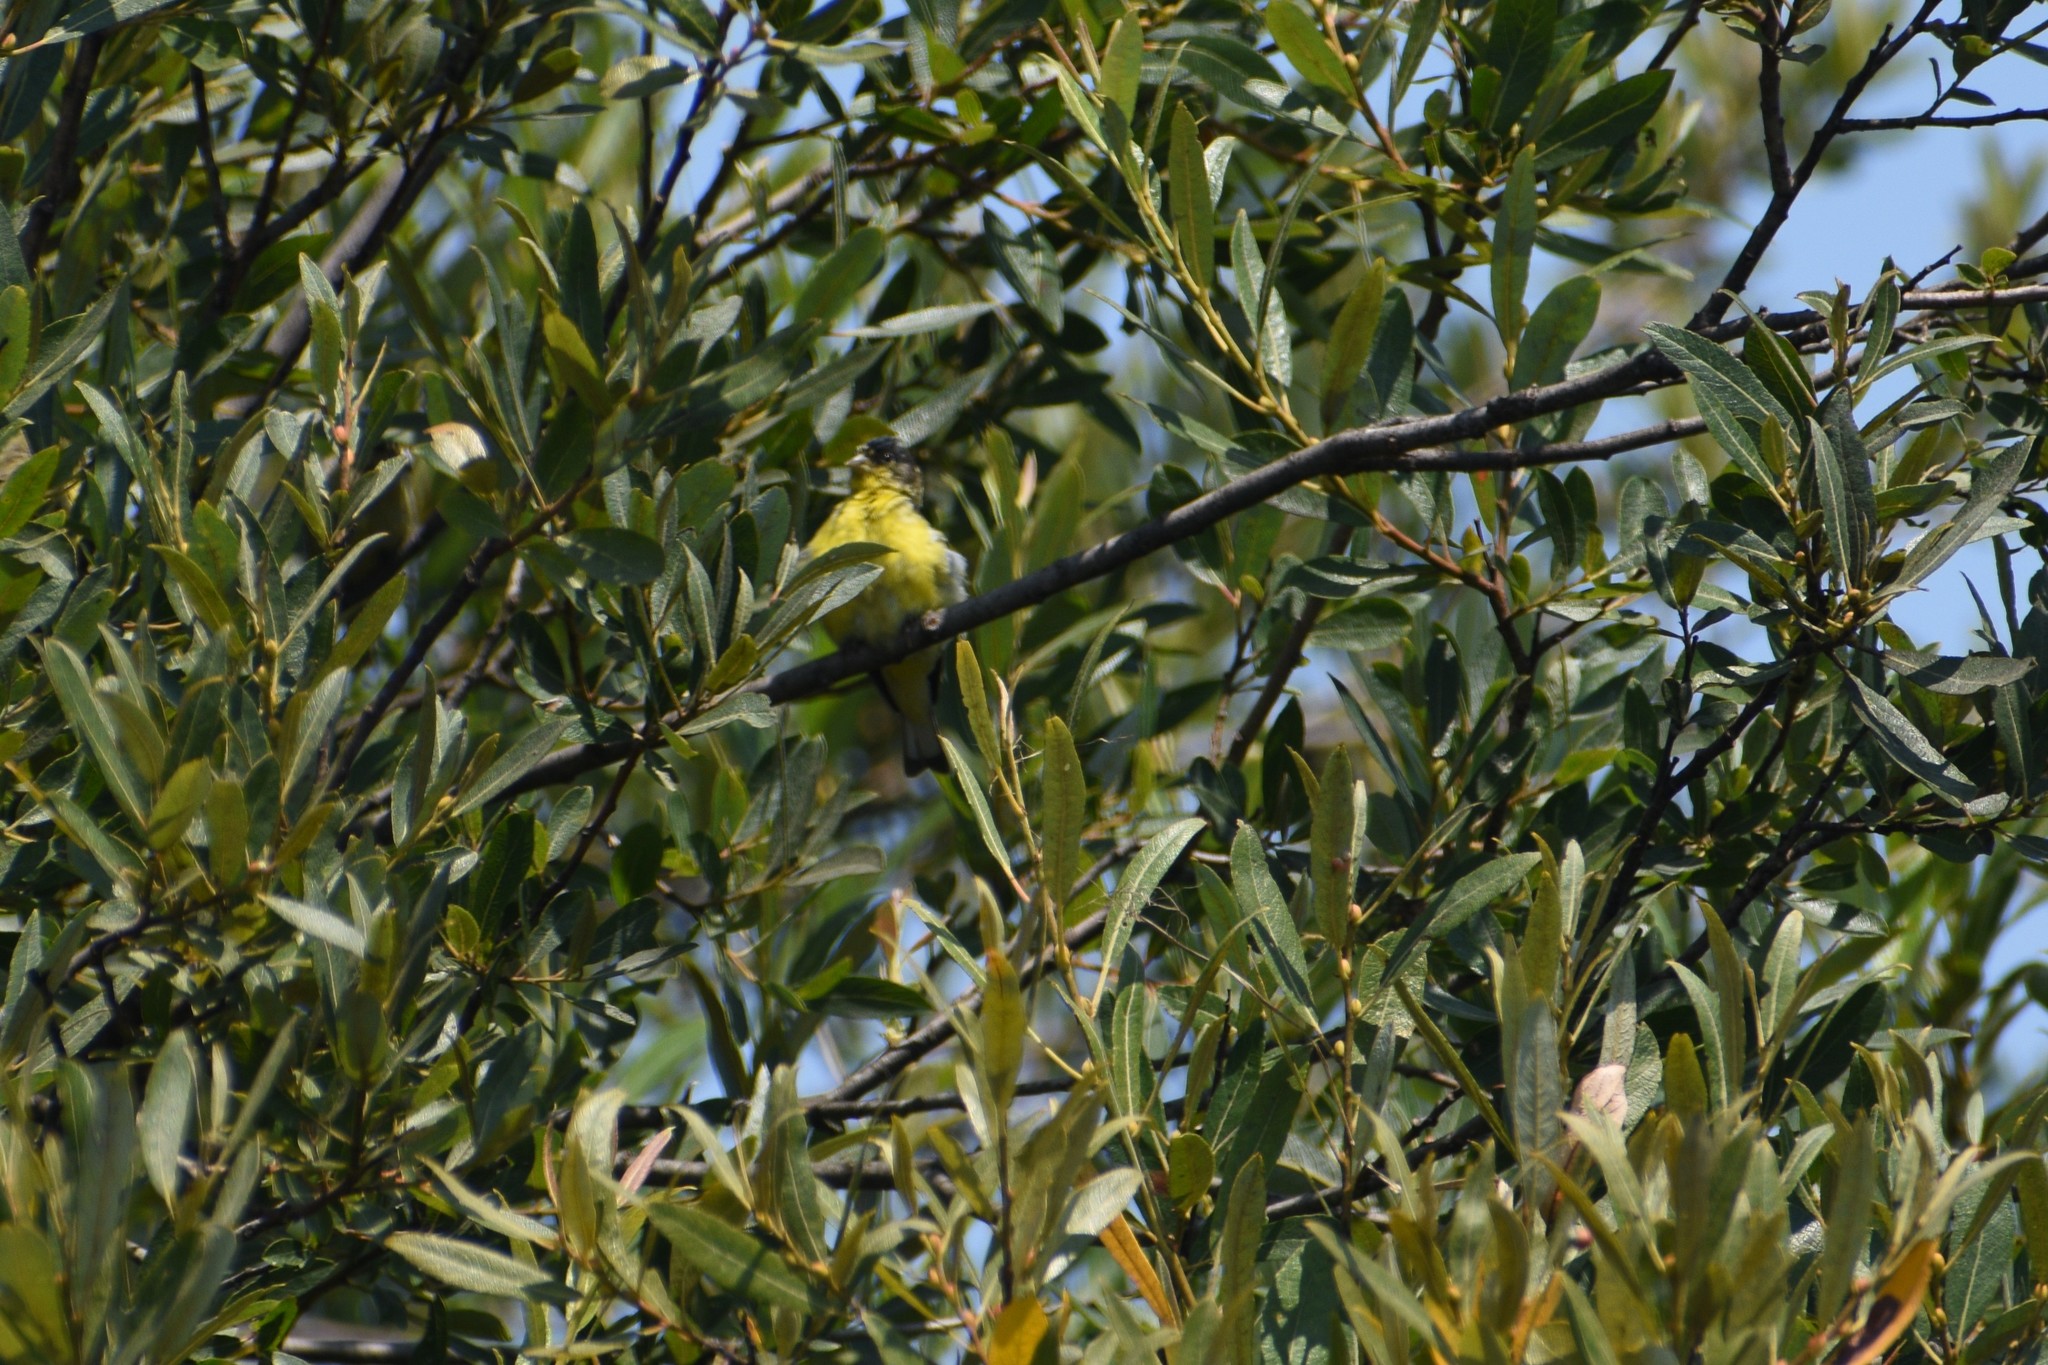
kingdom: Animalia
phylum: Chordata
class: Aves
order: Passeriformes
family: Fringillidae
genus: Spinus
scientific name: Spinus psaltria
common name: Lesser goldfinch
